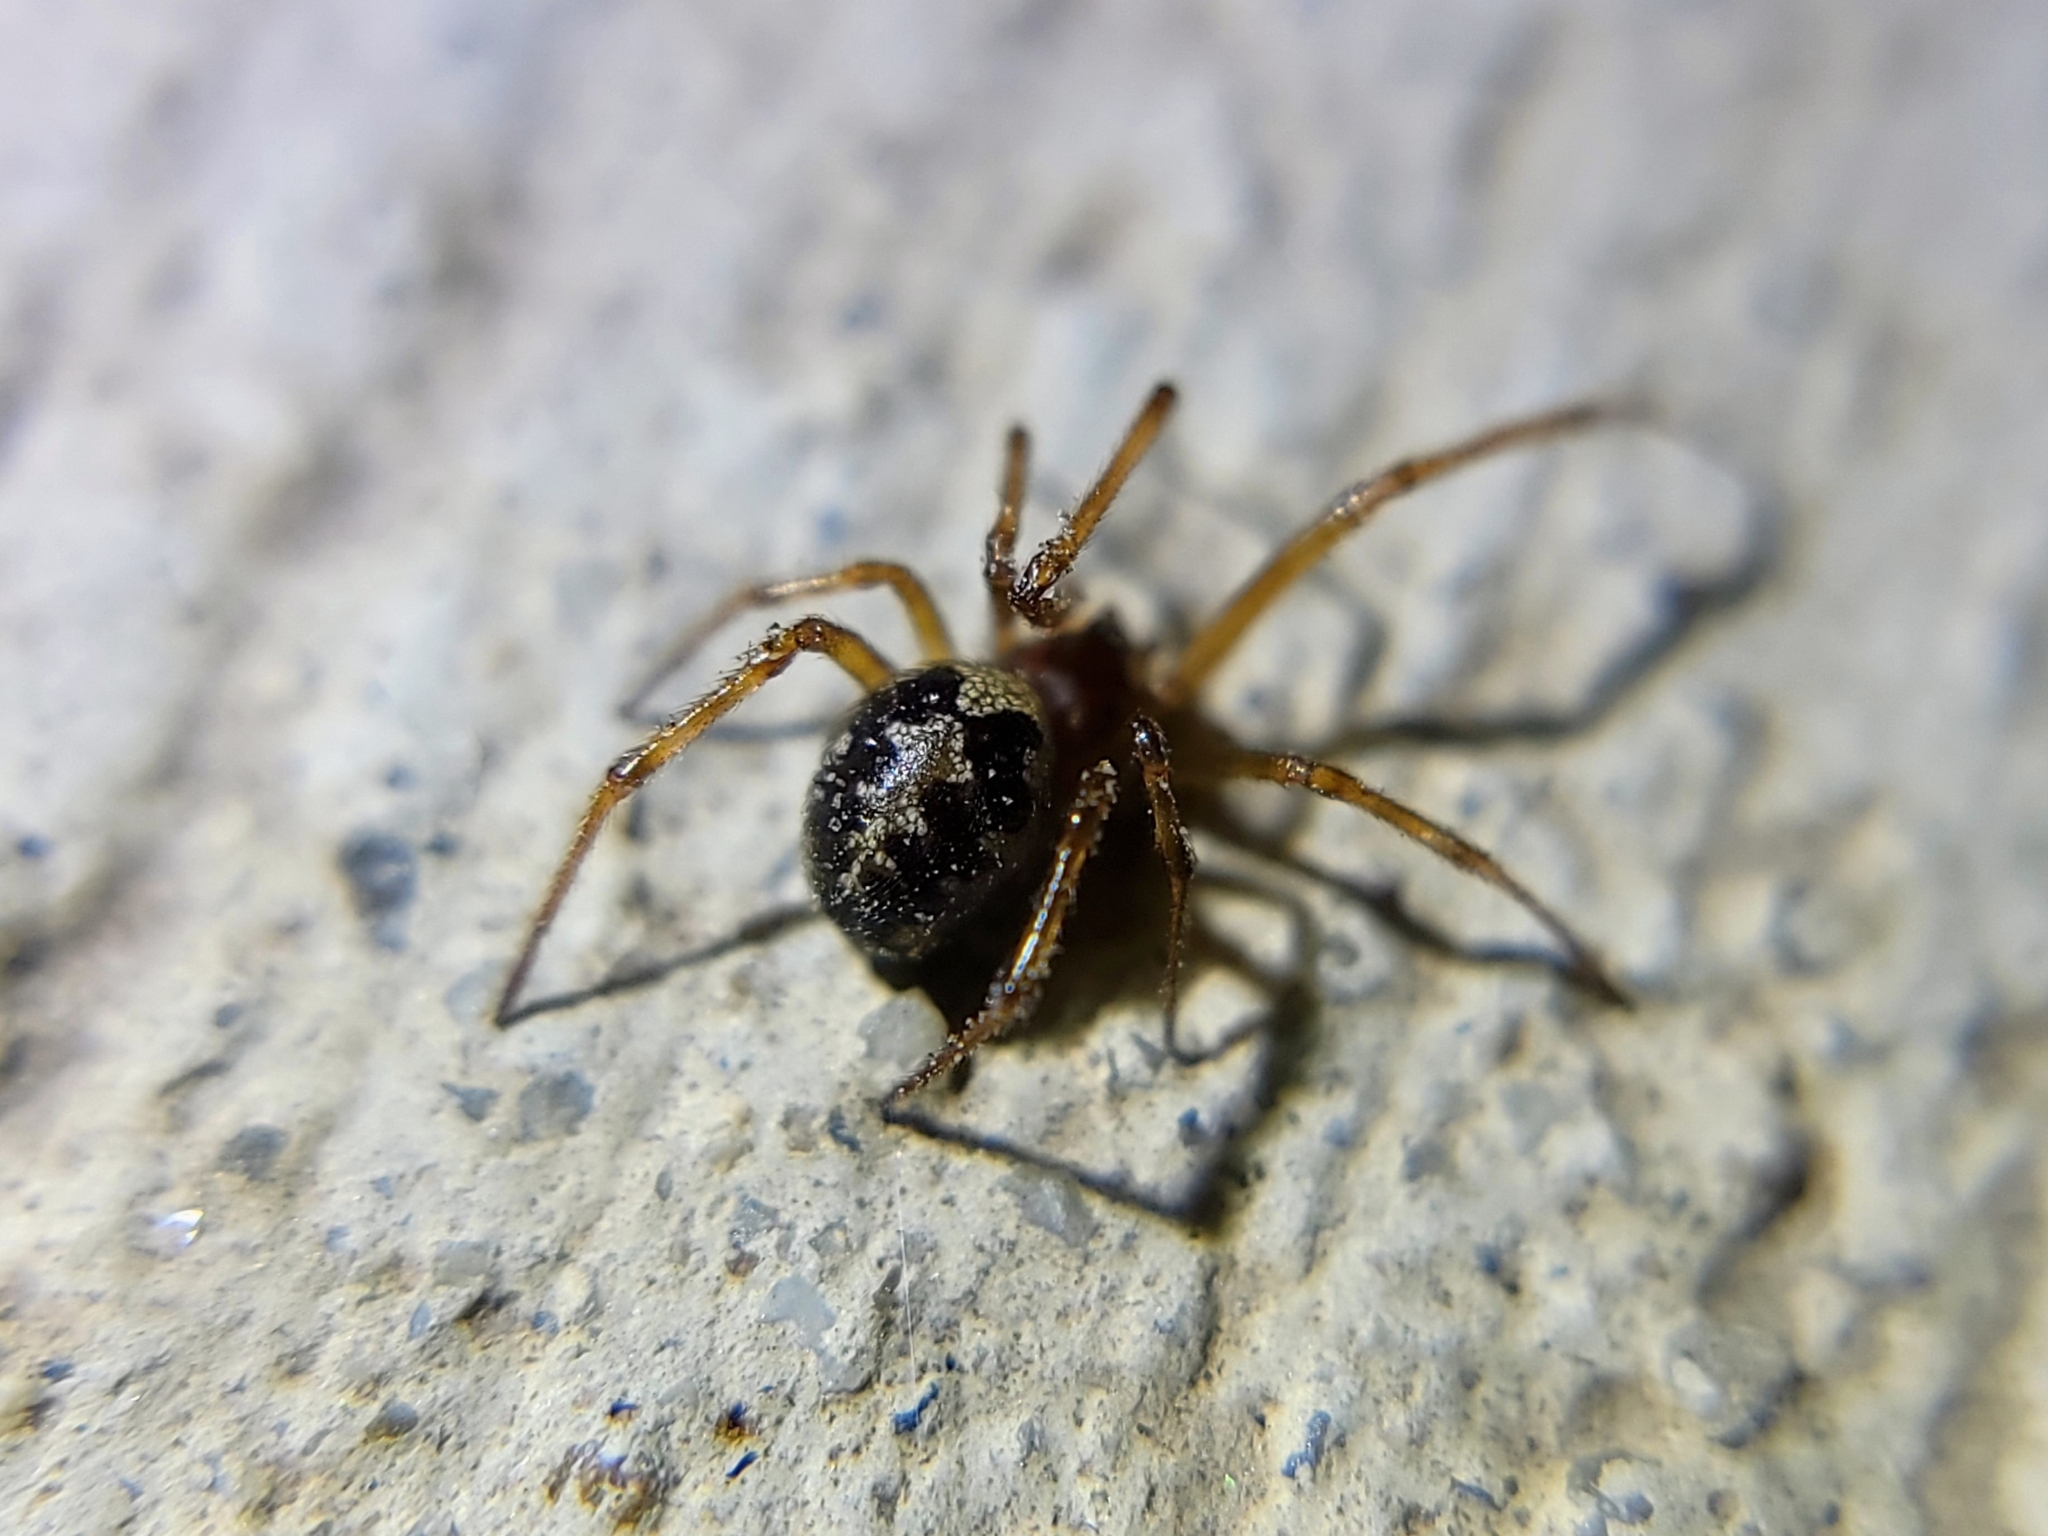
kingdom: Animalia
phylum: Arthropoda
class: Arachnida
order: Araneae
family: Theridiidae
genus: Steatoda
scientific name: Steatoda triangulosa
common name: Triangulate bud spider
